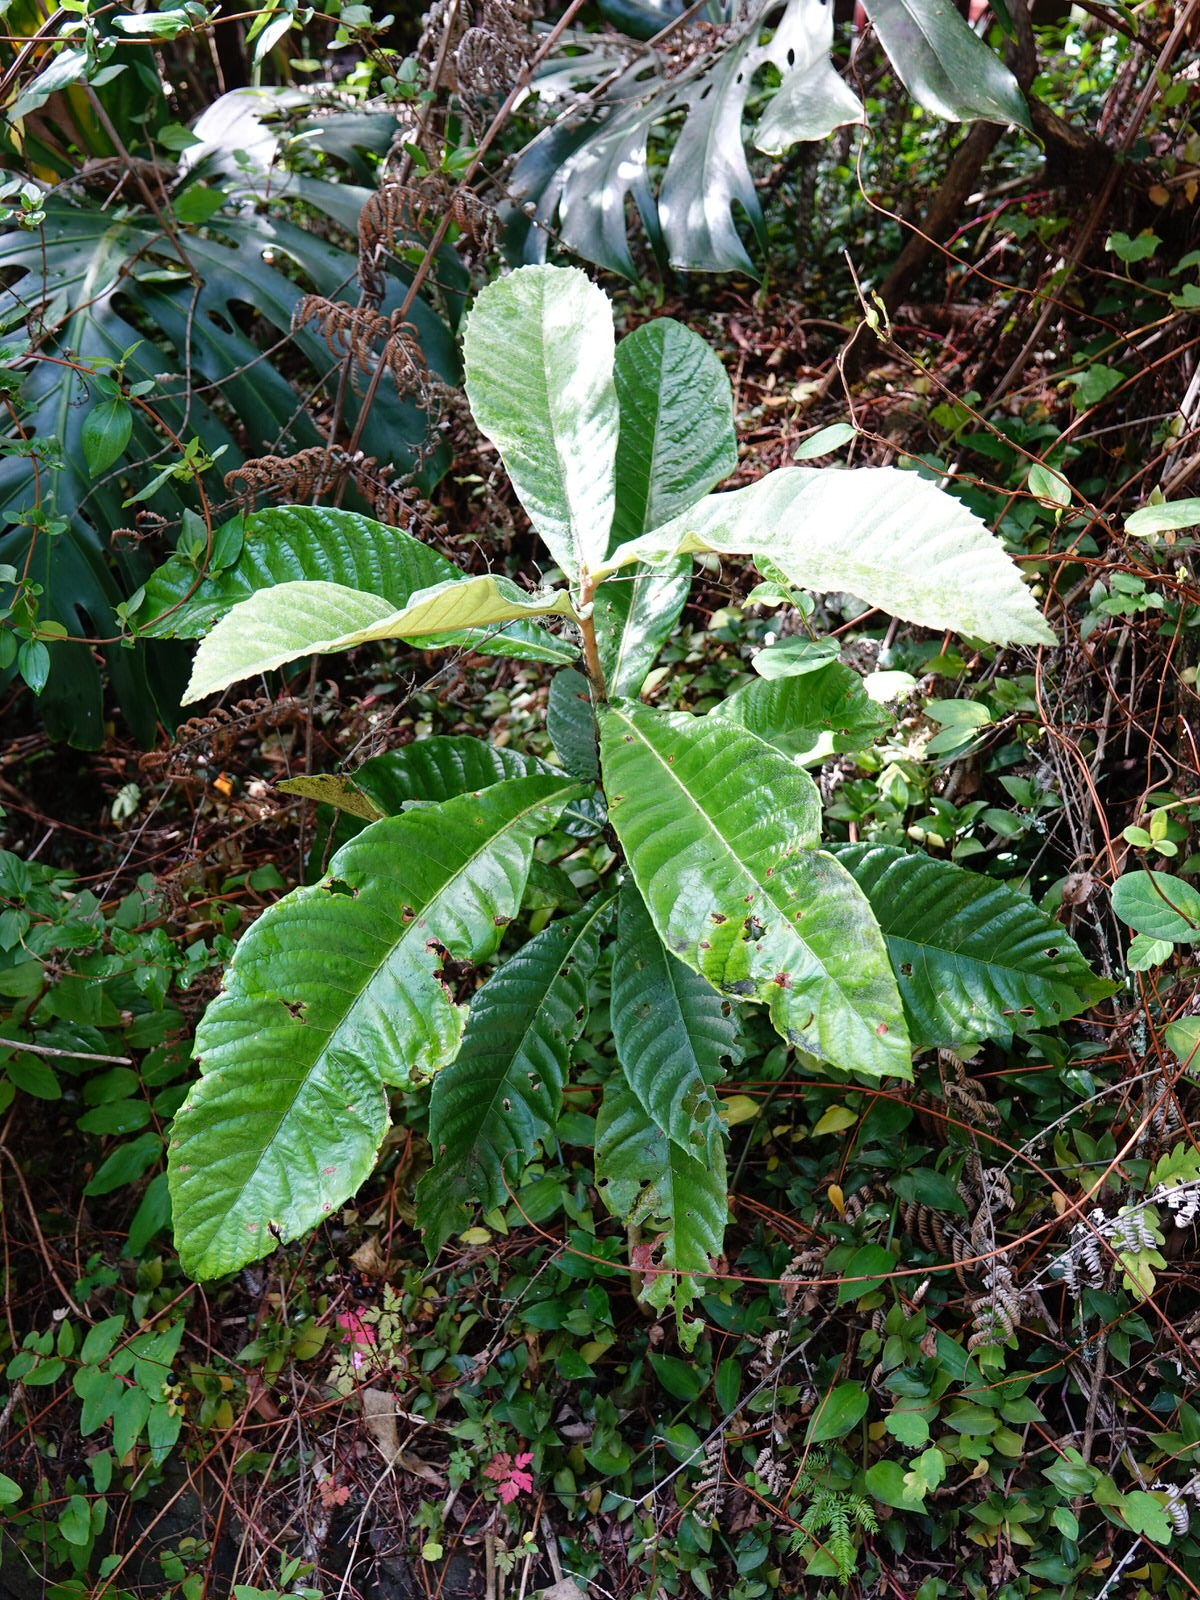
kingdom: Plantae
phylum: Tracheophyta
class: Magnoliopsida
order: Rosales
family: Rosaceae
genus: Rhaphiolepis
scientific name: Rhaphiolepis bibas
